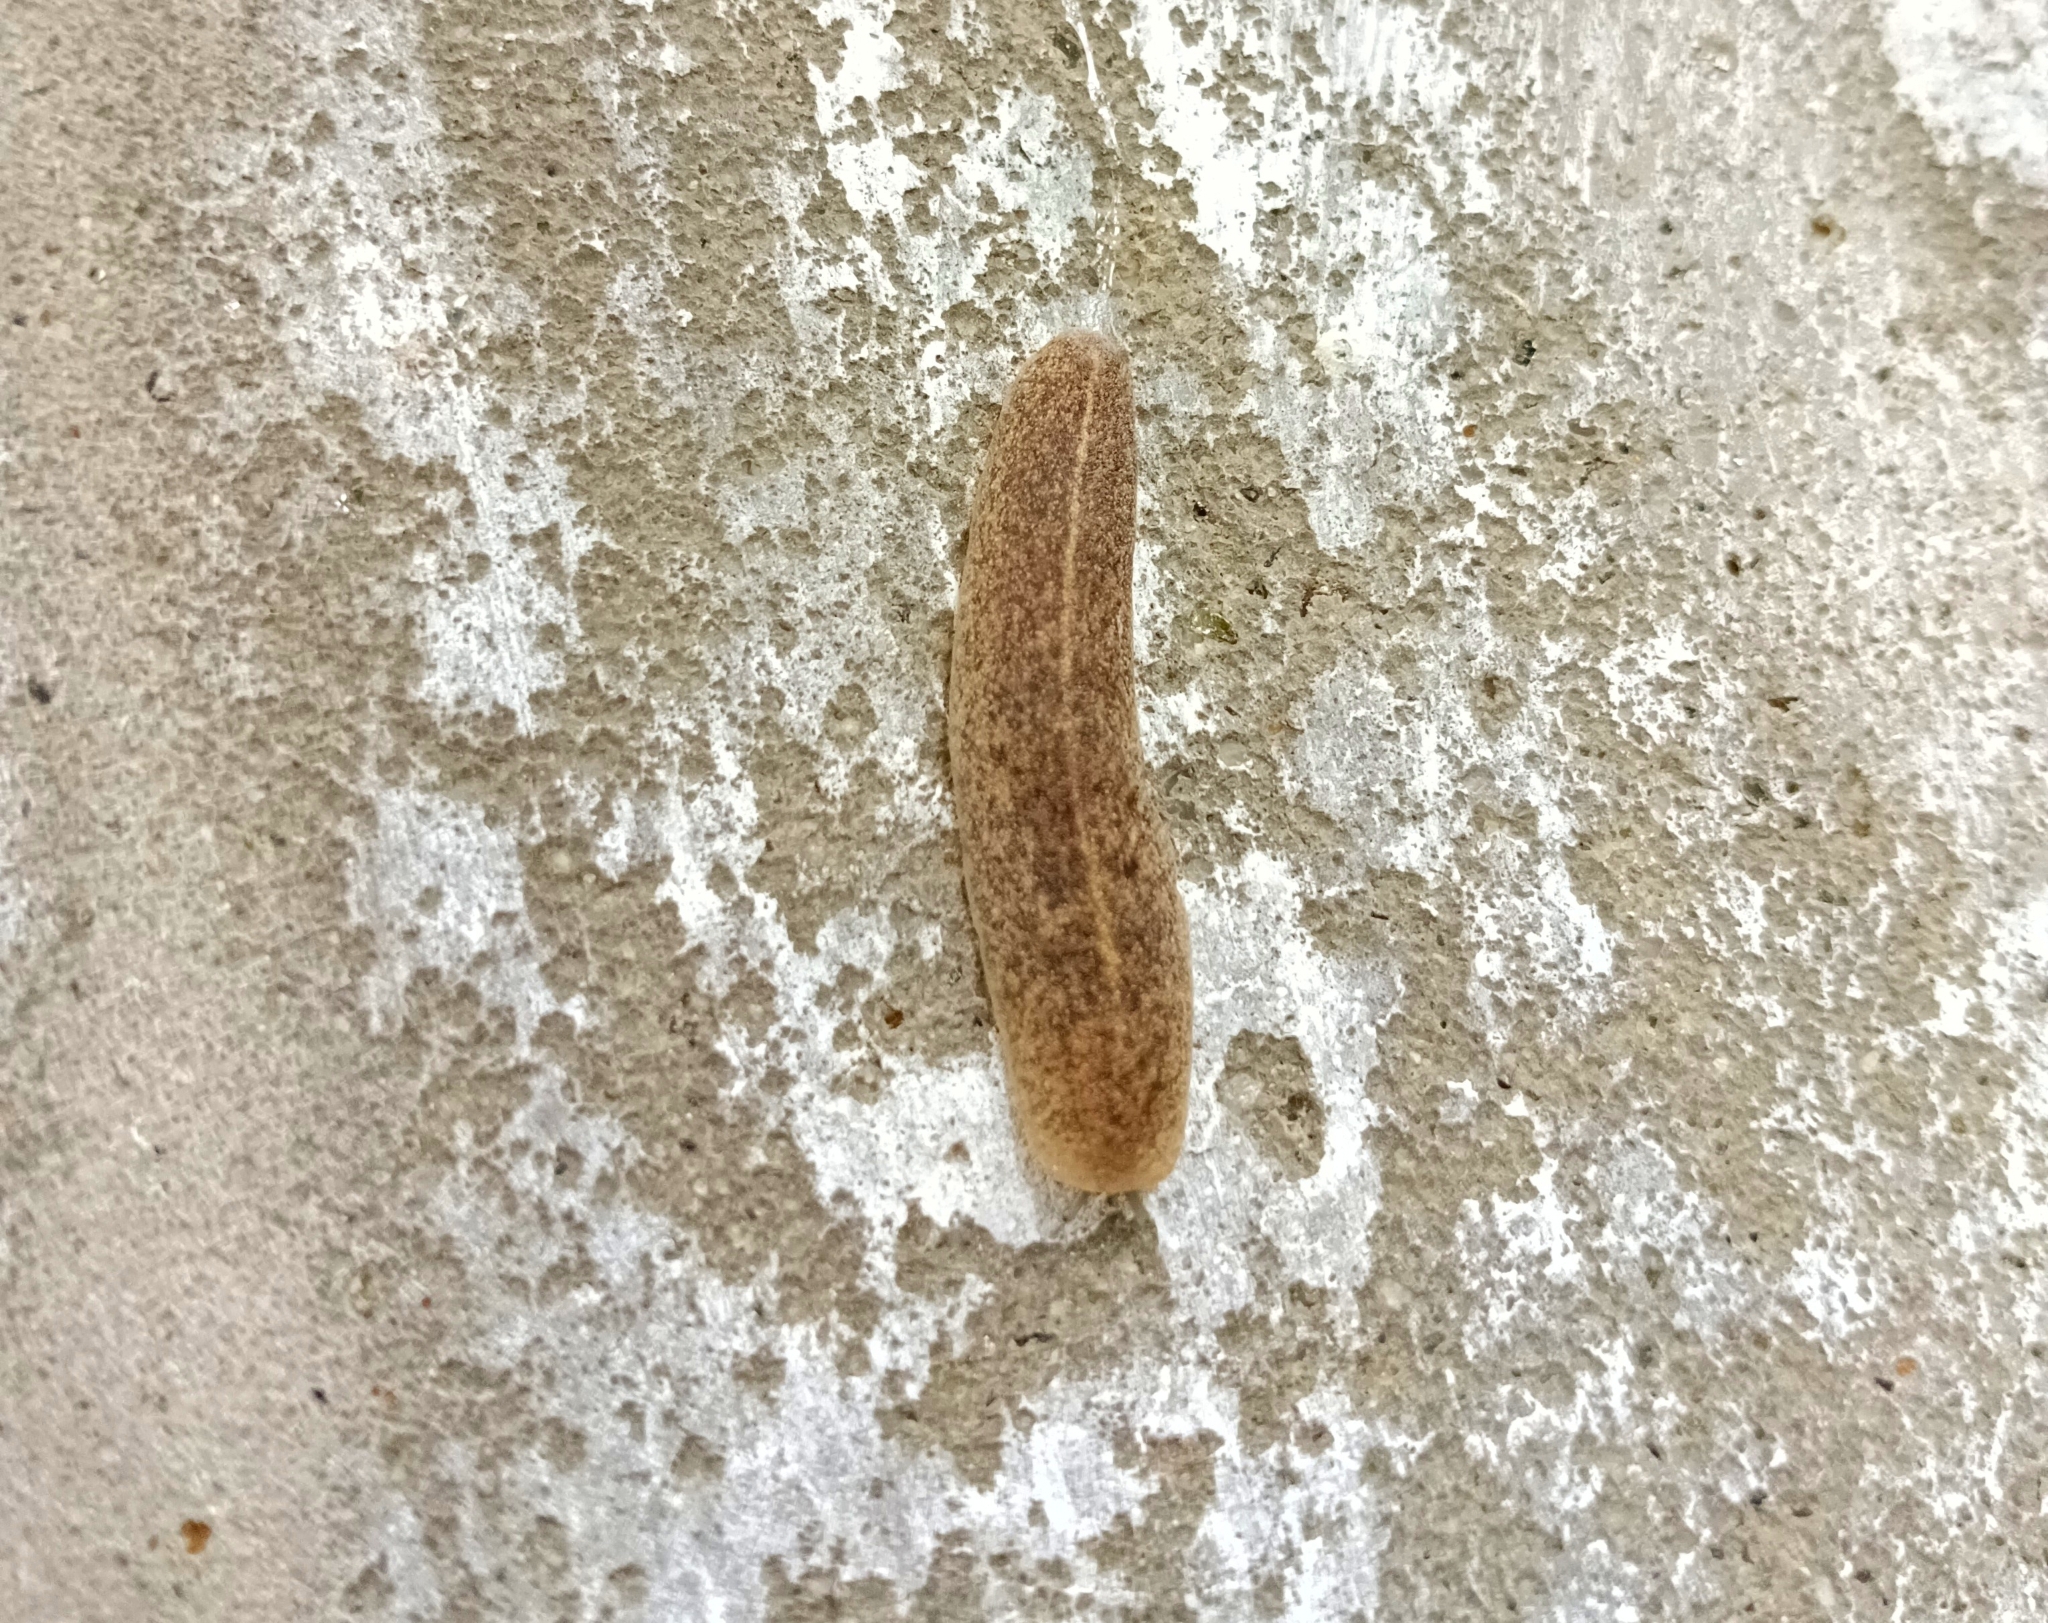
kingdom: Animalia
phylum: Mollusca
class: Gastropoda
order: Systellommatophora
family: Veronicellidae
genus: Semperula
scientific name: Semperula maculata
